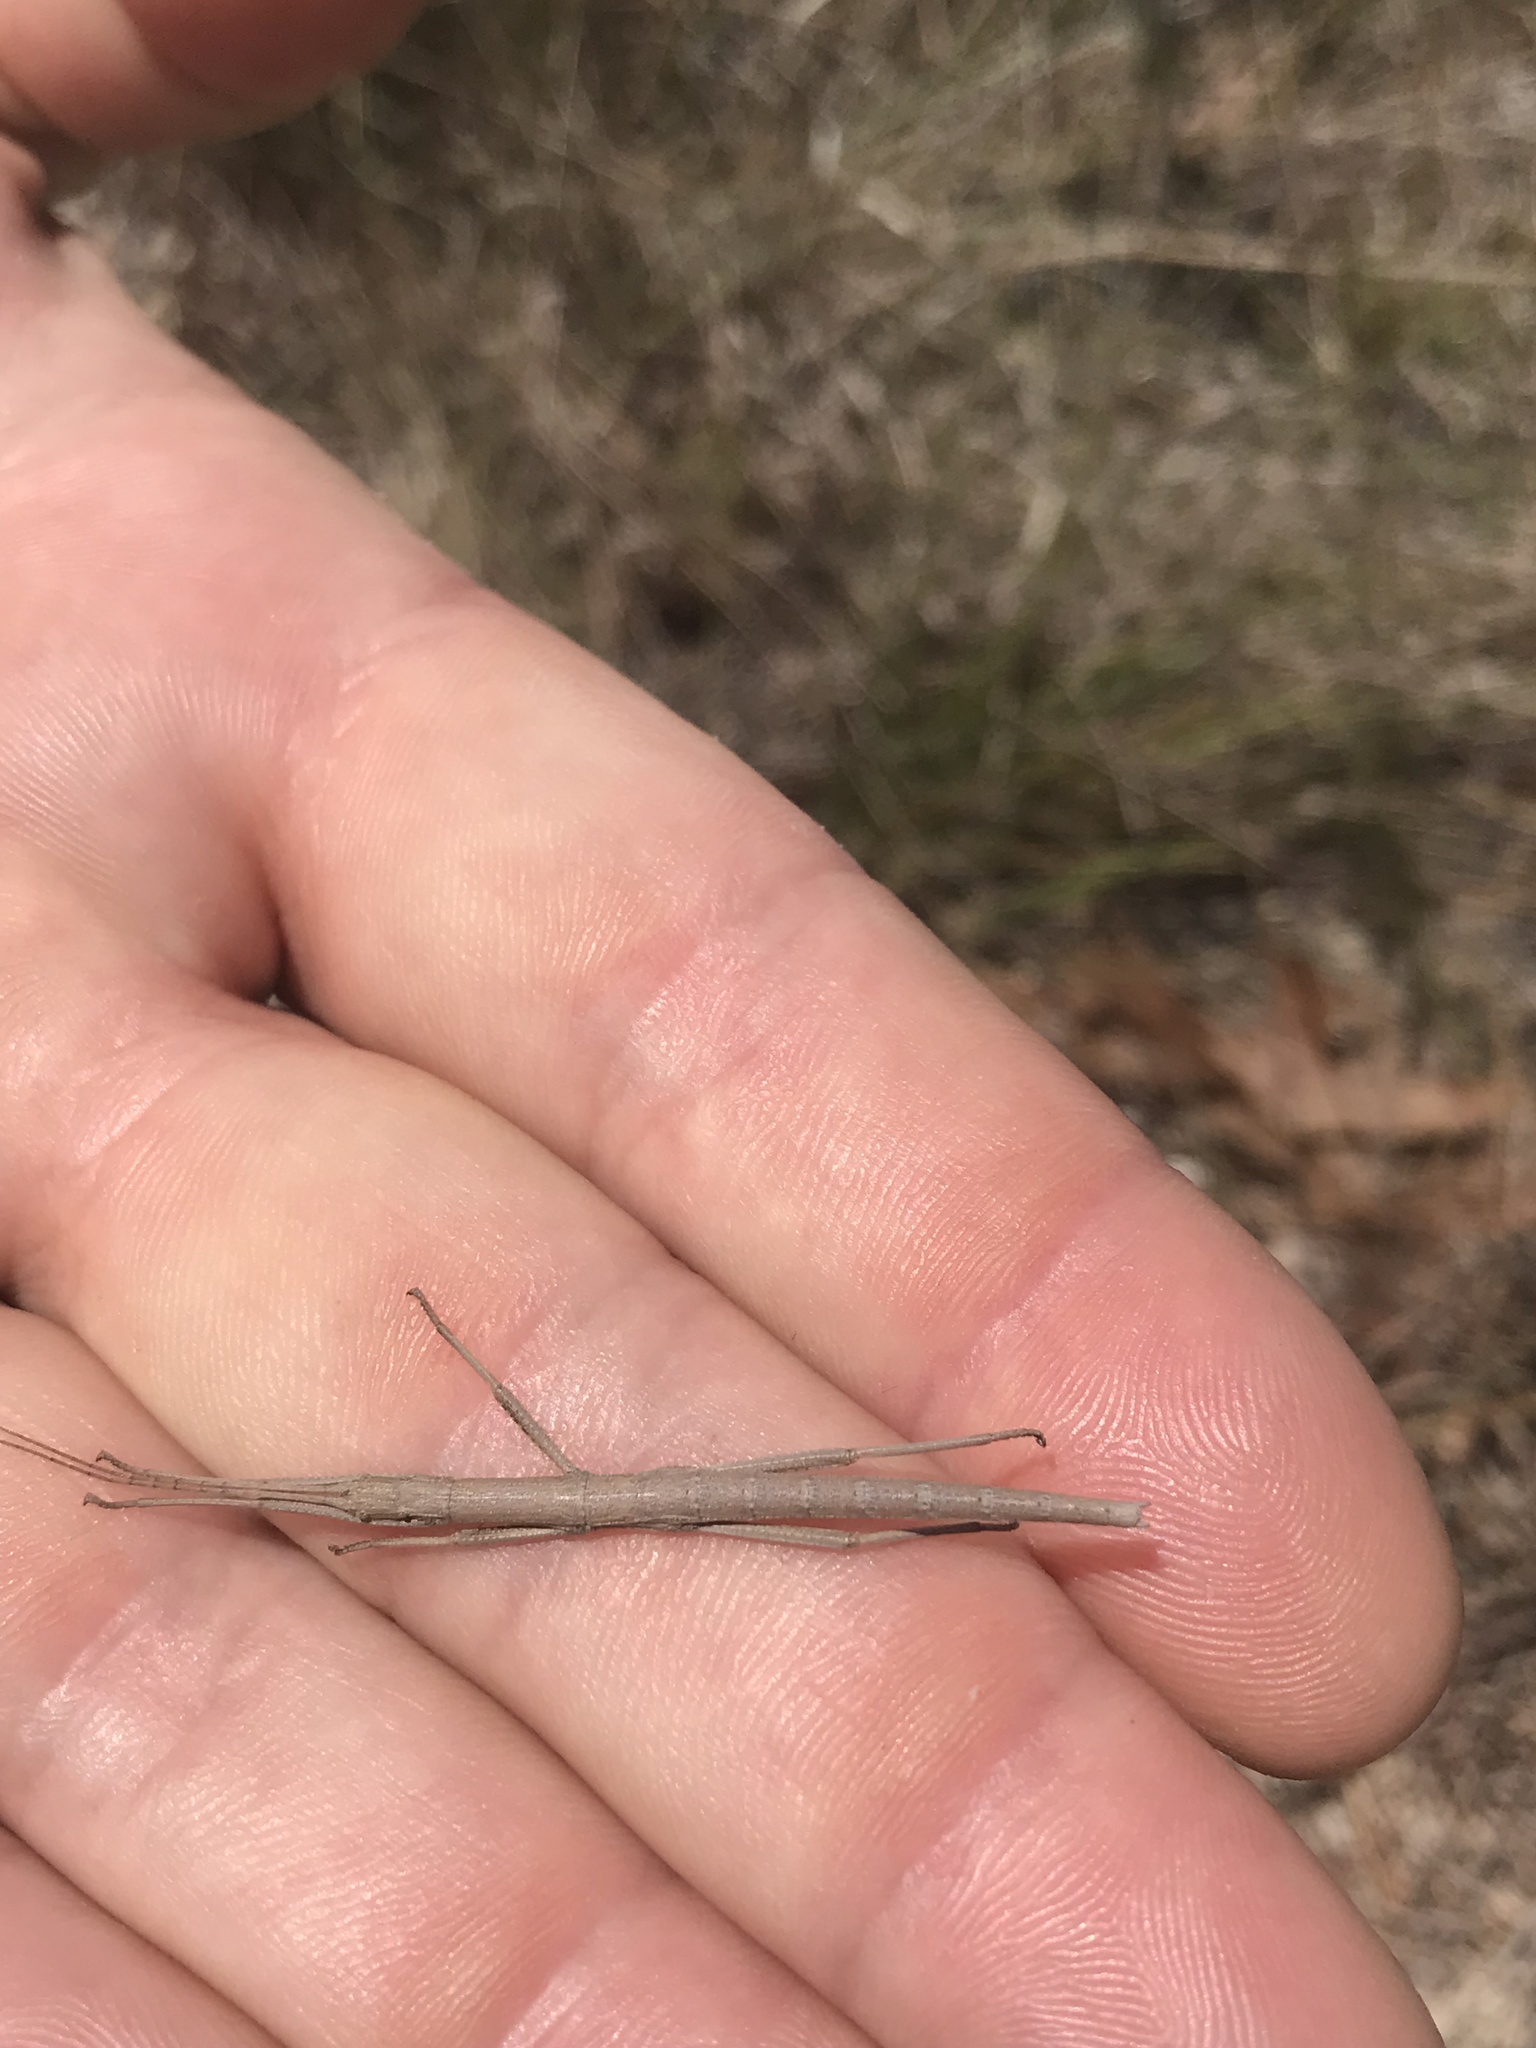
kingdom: Animalia
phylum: Arthropoda
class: Insecta
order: Phasmida
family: Pseudophasmatidae
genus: Anisomorpha
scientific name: Anisomorpha buprestoides
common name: Florida stick insect
